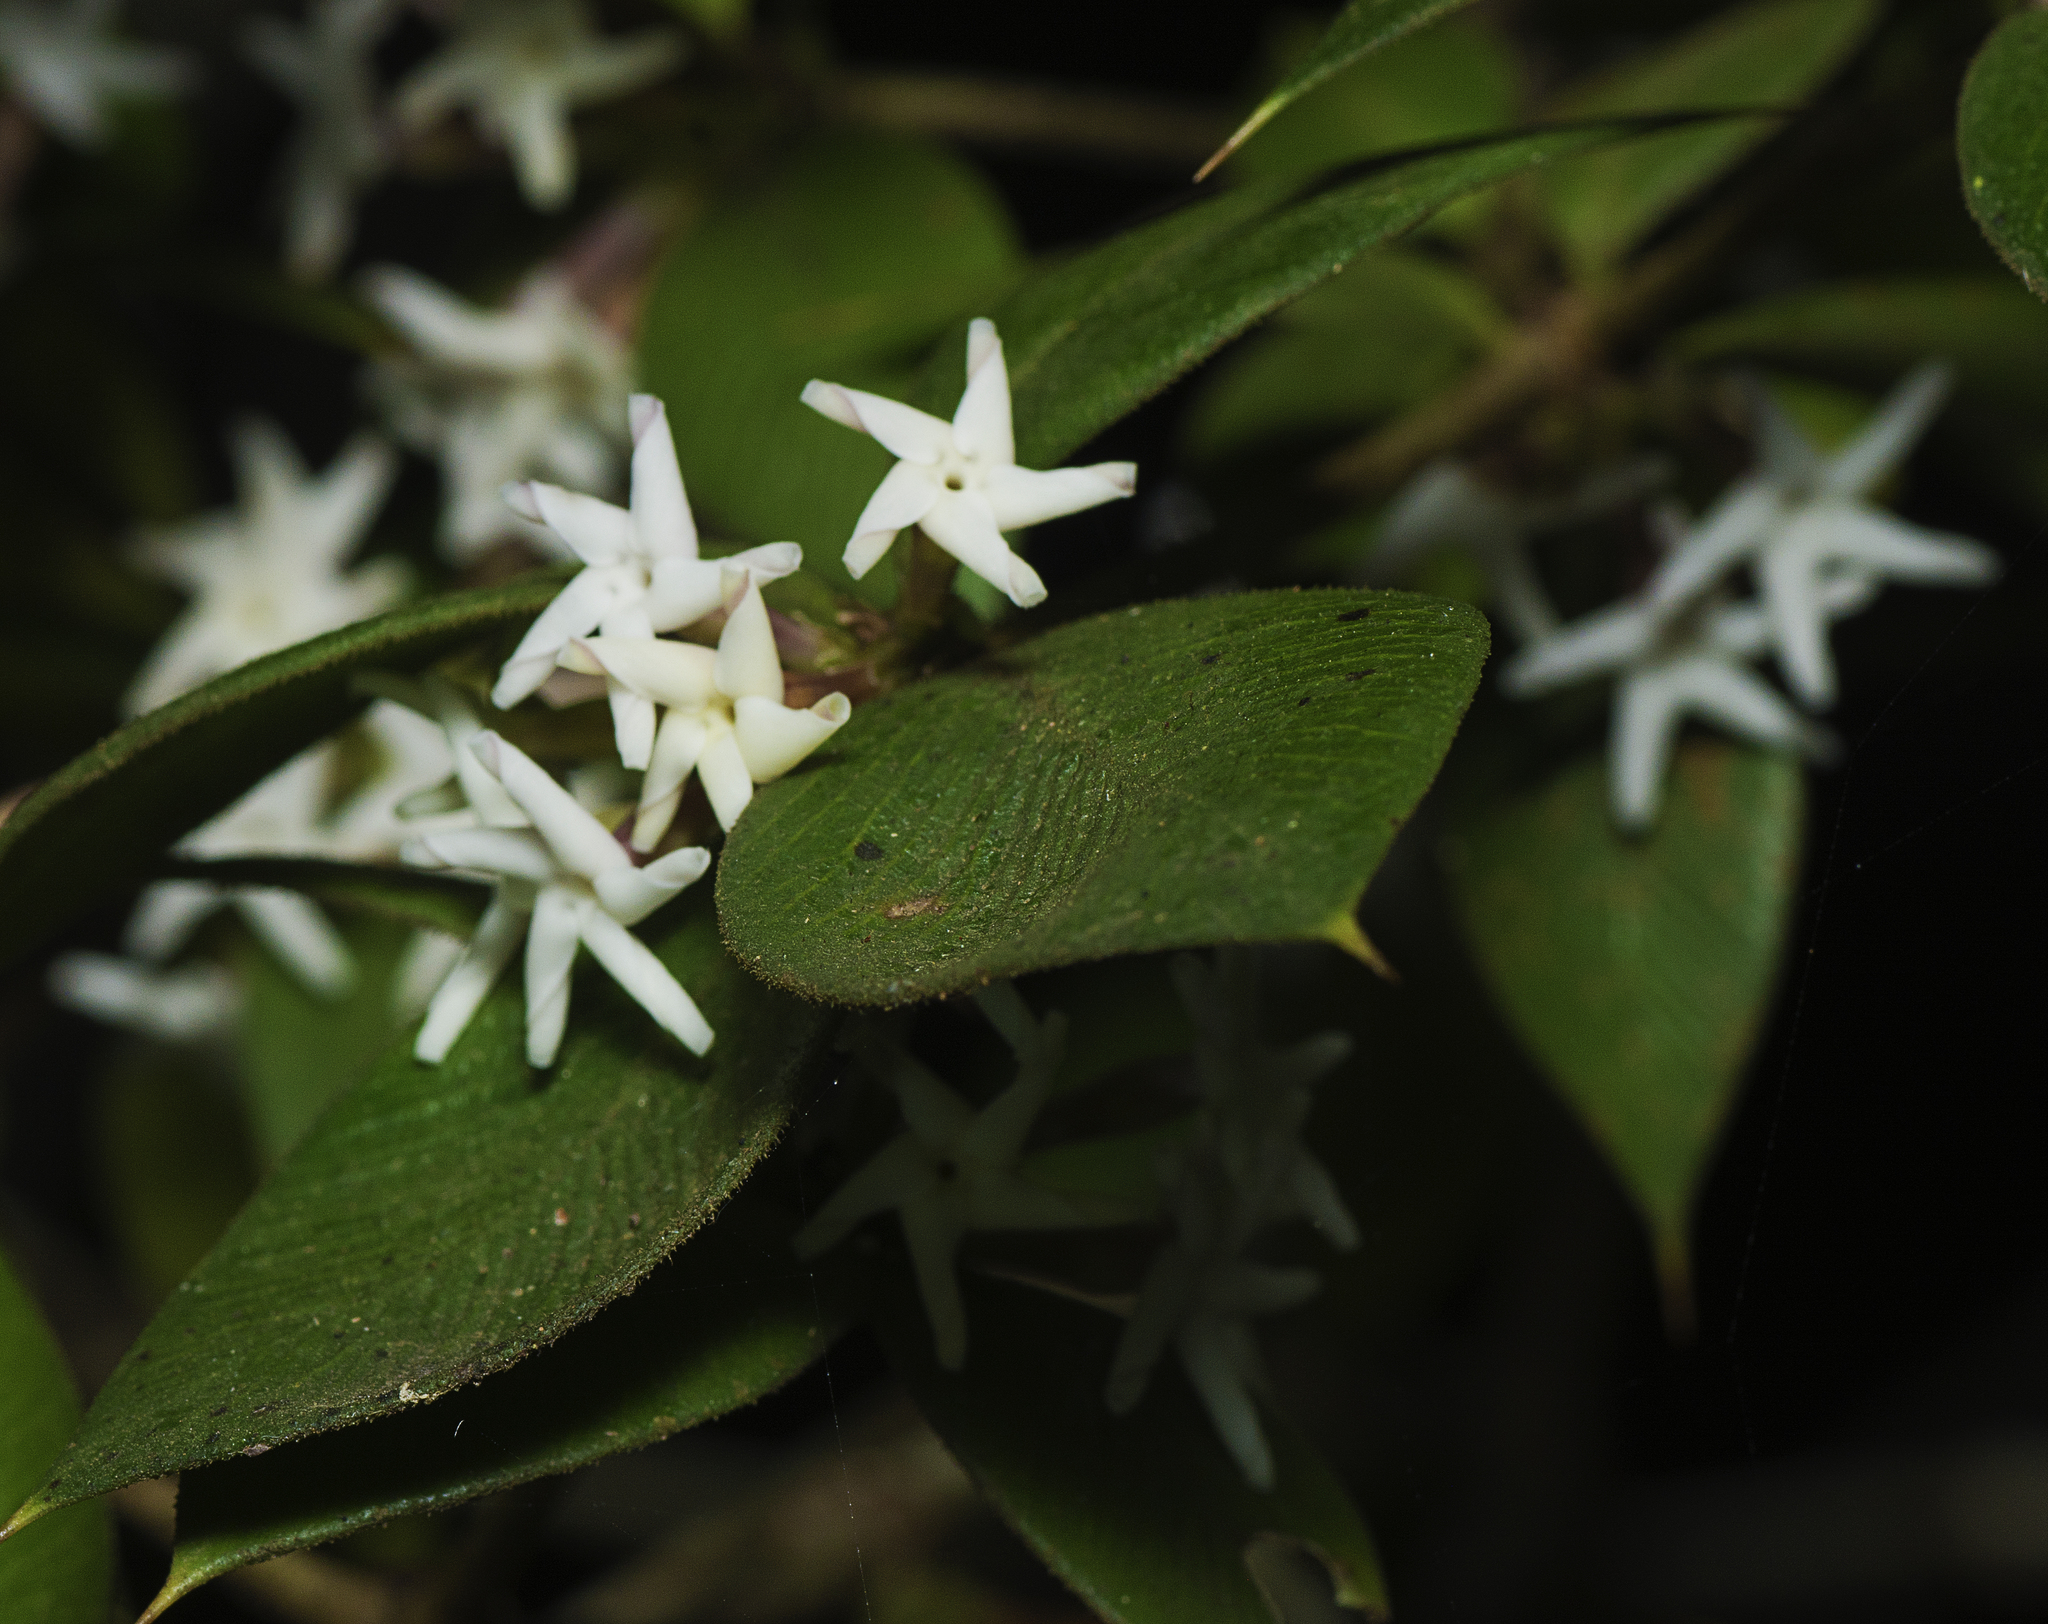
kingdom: Plantae
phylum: Tracheophyta
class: Magnoliopsida
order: Gentianales
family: Apocynaceae
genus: Alyxia
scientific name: Alyxia ruscifolia
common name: Chainfruit
